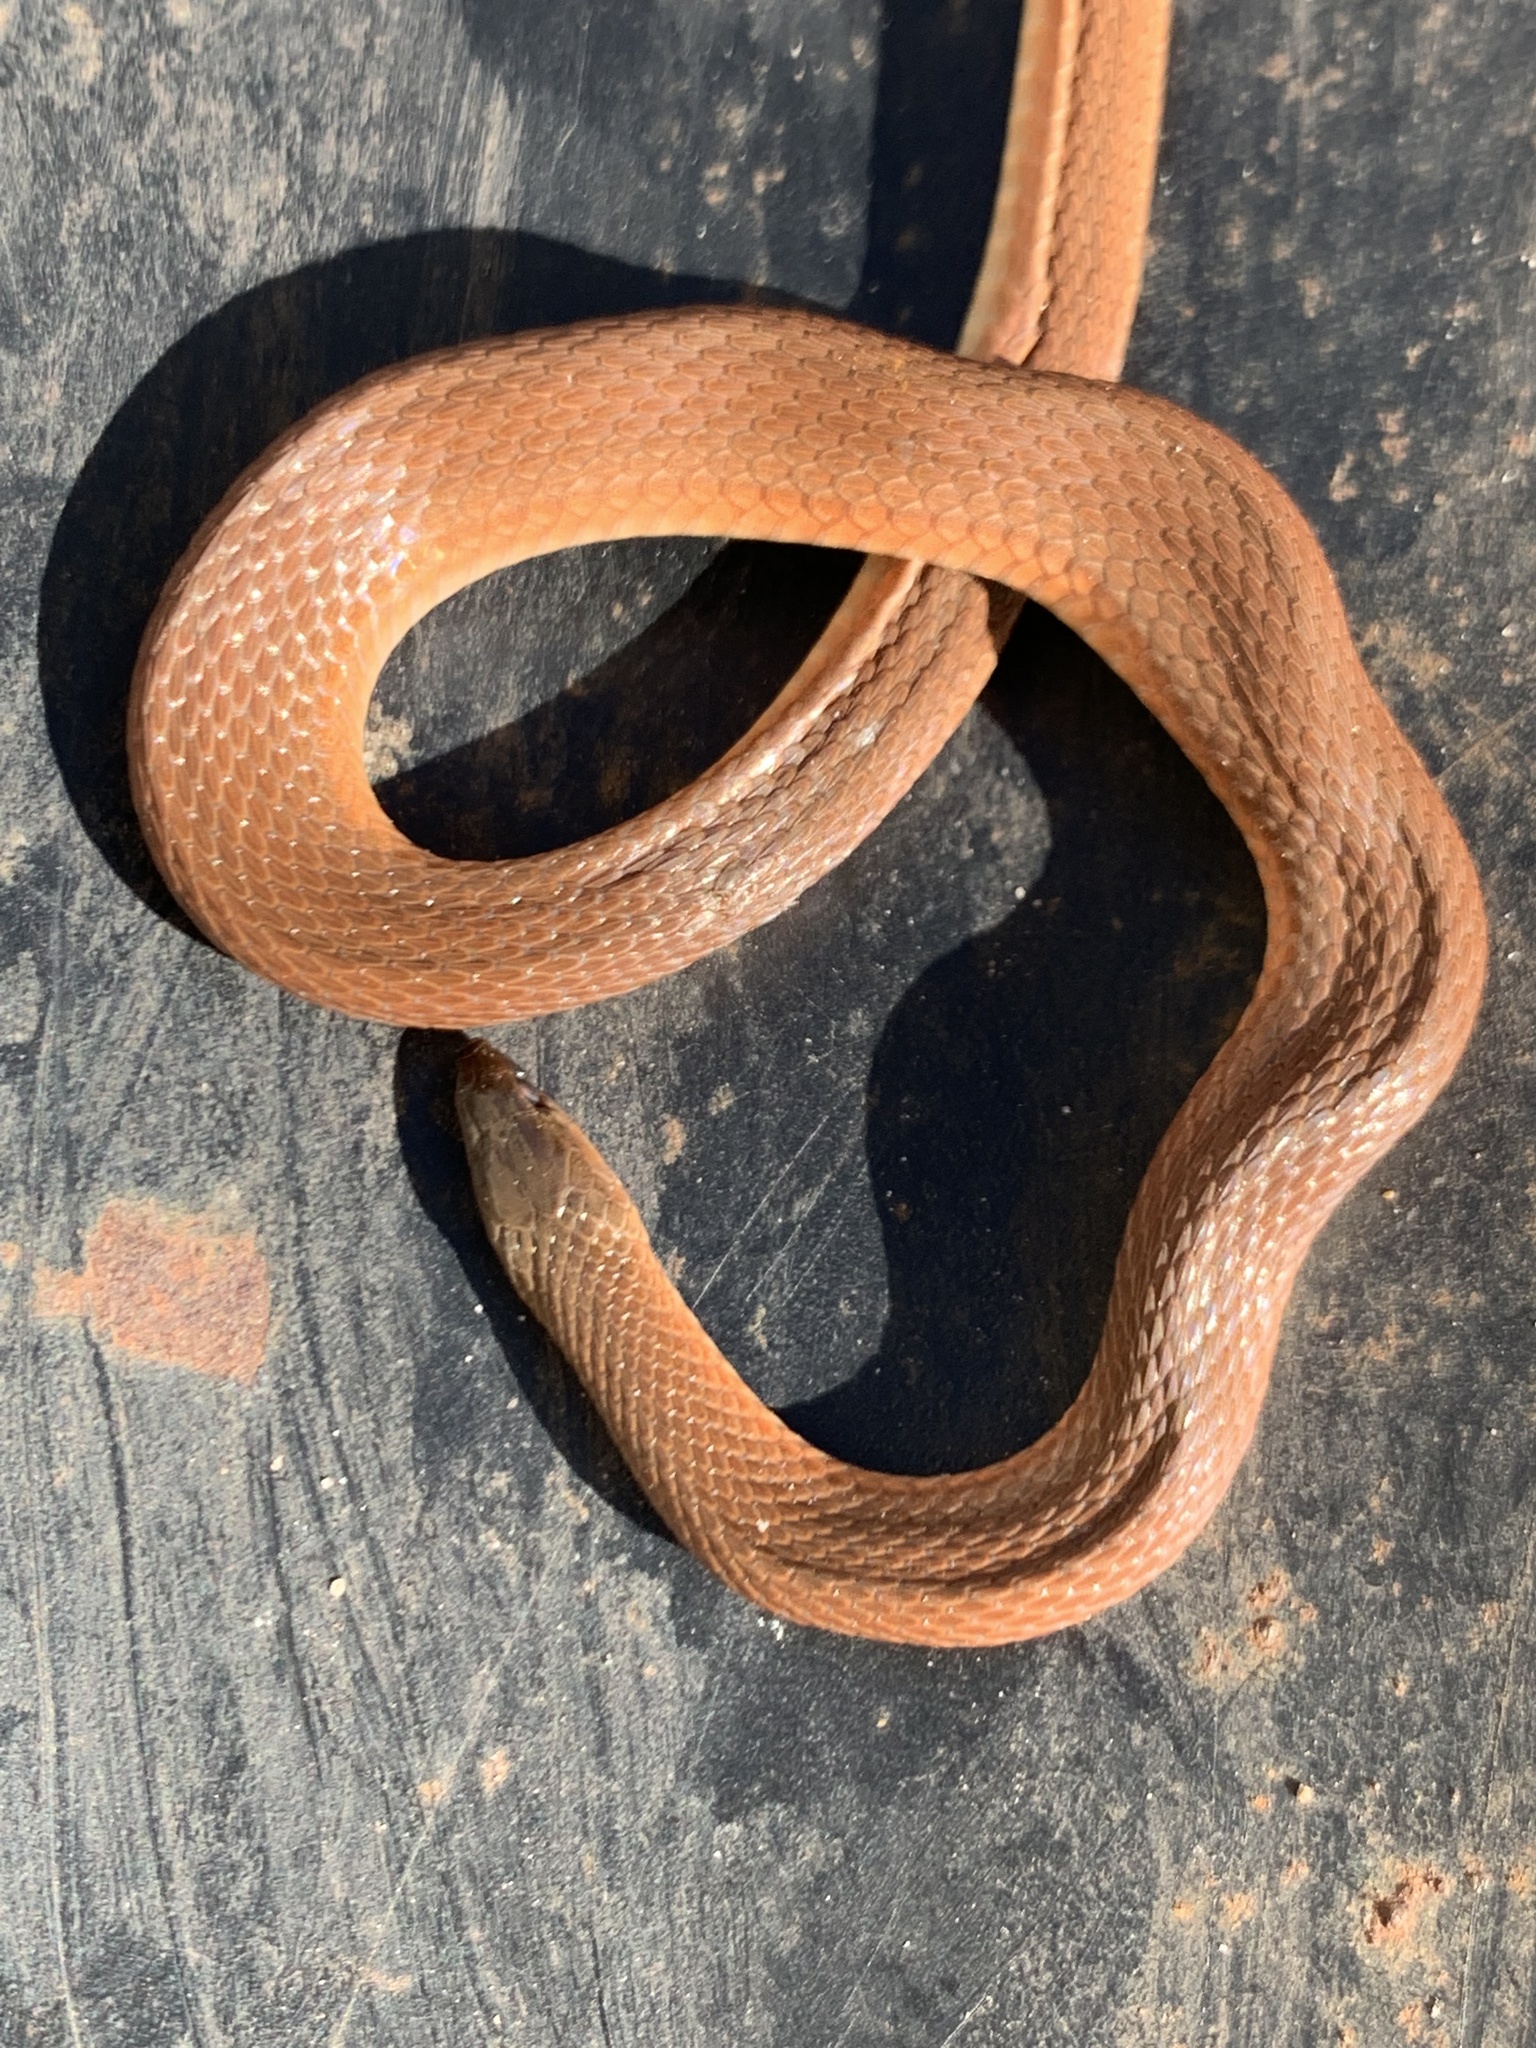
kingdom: Animalia
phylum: Chordata
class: Squamata
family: Colubridae
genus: Haldea
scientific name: Haldea striatula
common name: Rough earth snake
